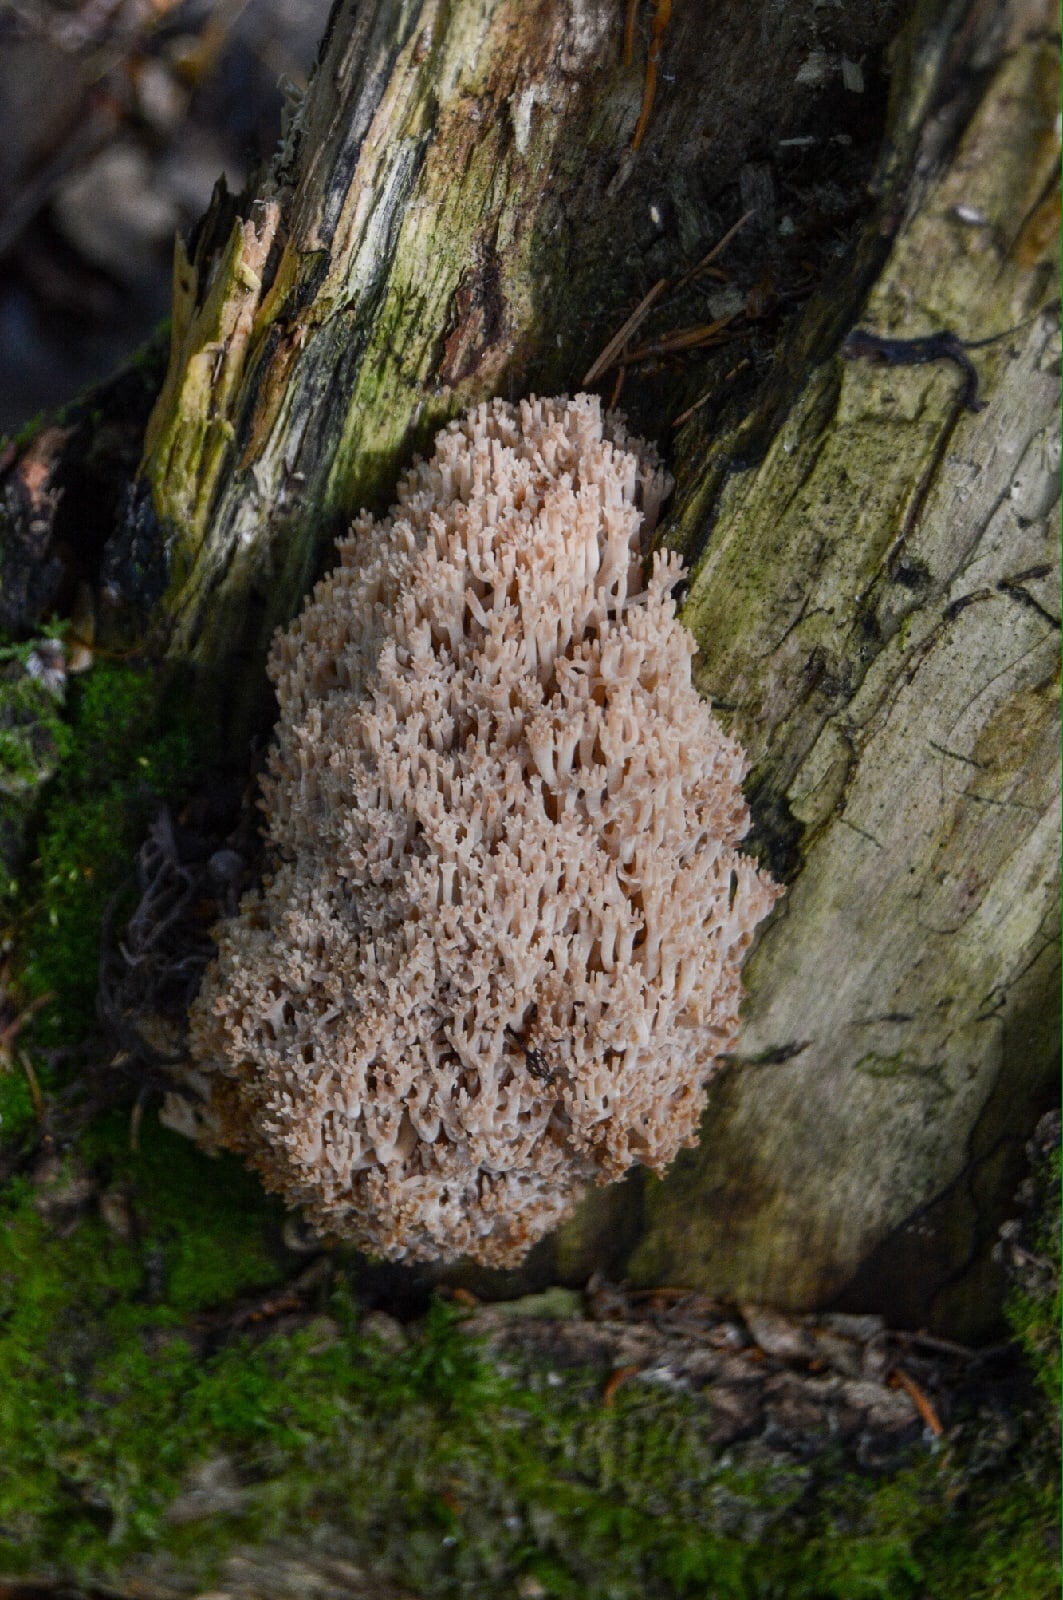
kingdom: Fungi
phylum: Basidiomycota
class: Agaricomycetes
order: Russulales
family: Auriscalpiaceae
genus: Artomyces
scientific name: Artomyces pyxidatus
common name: Crown-tipped coral fungus
